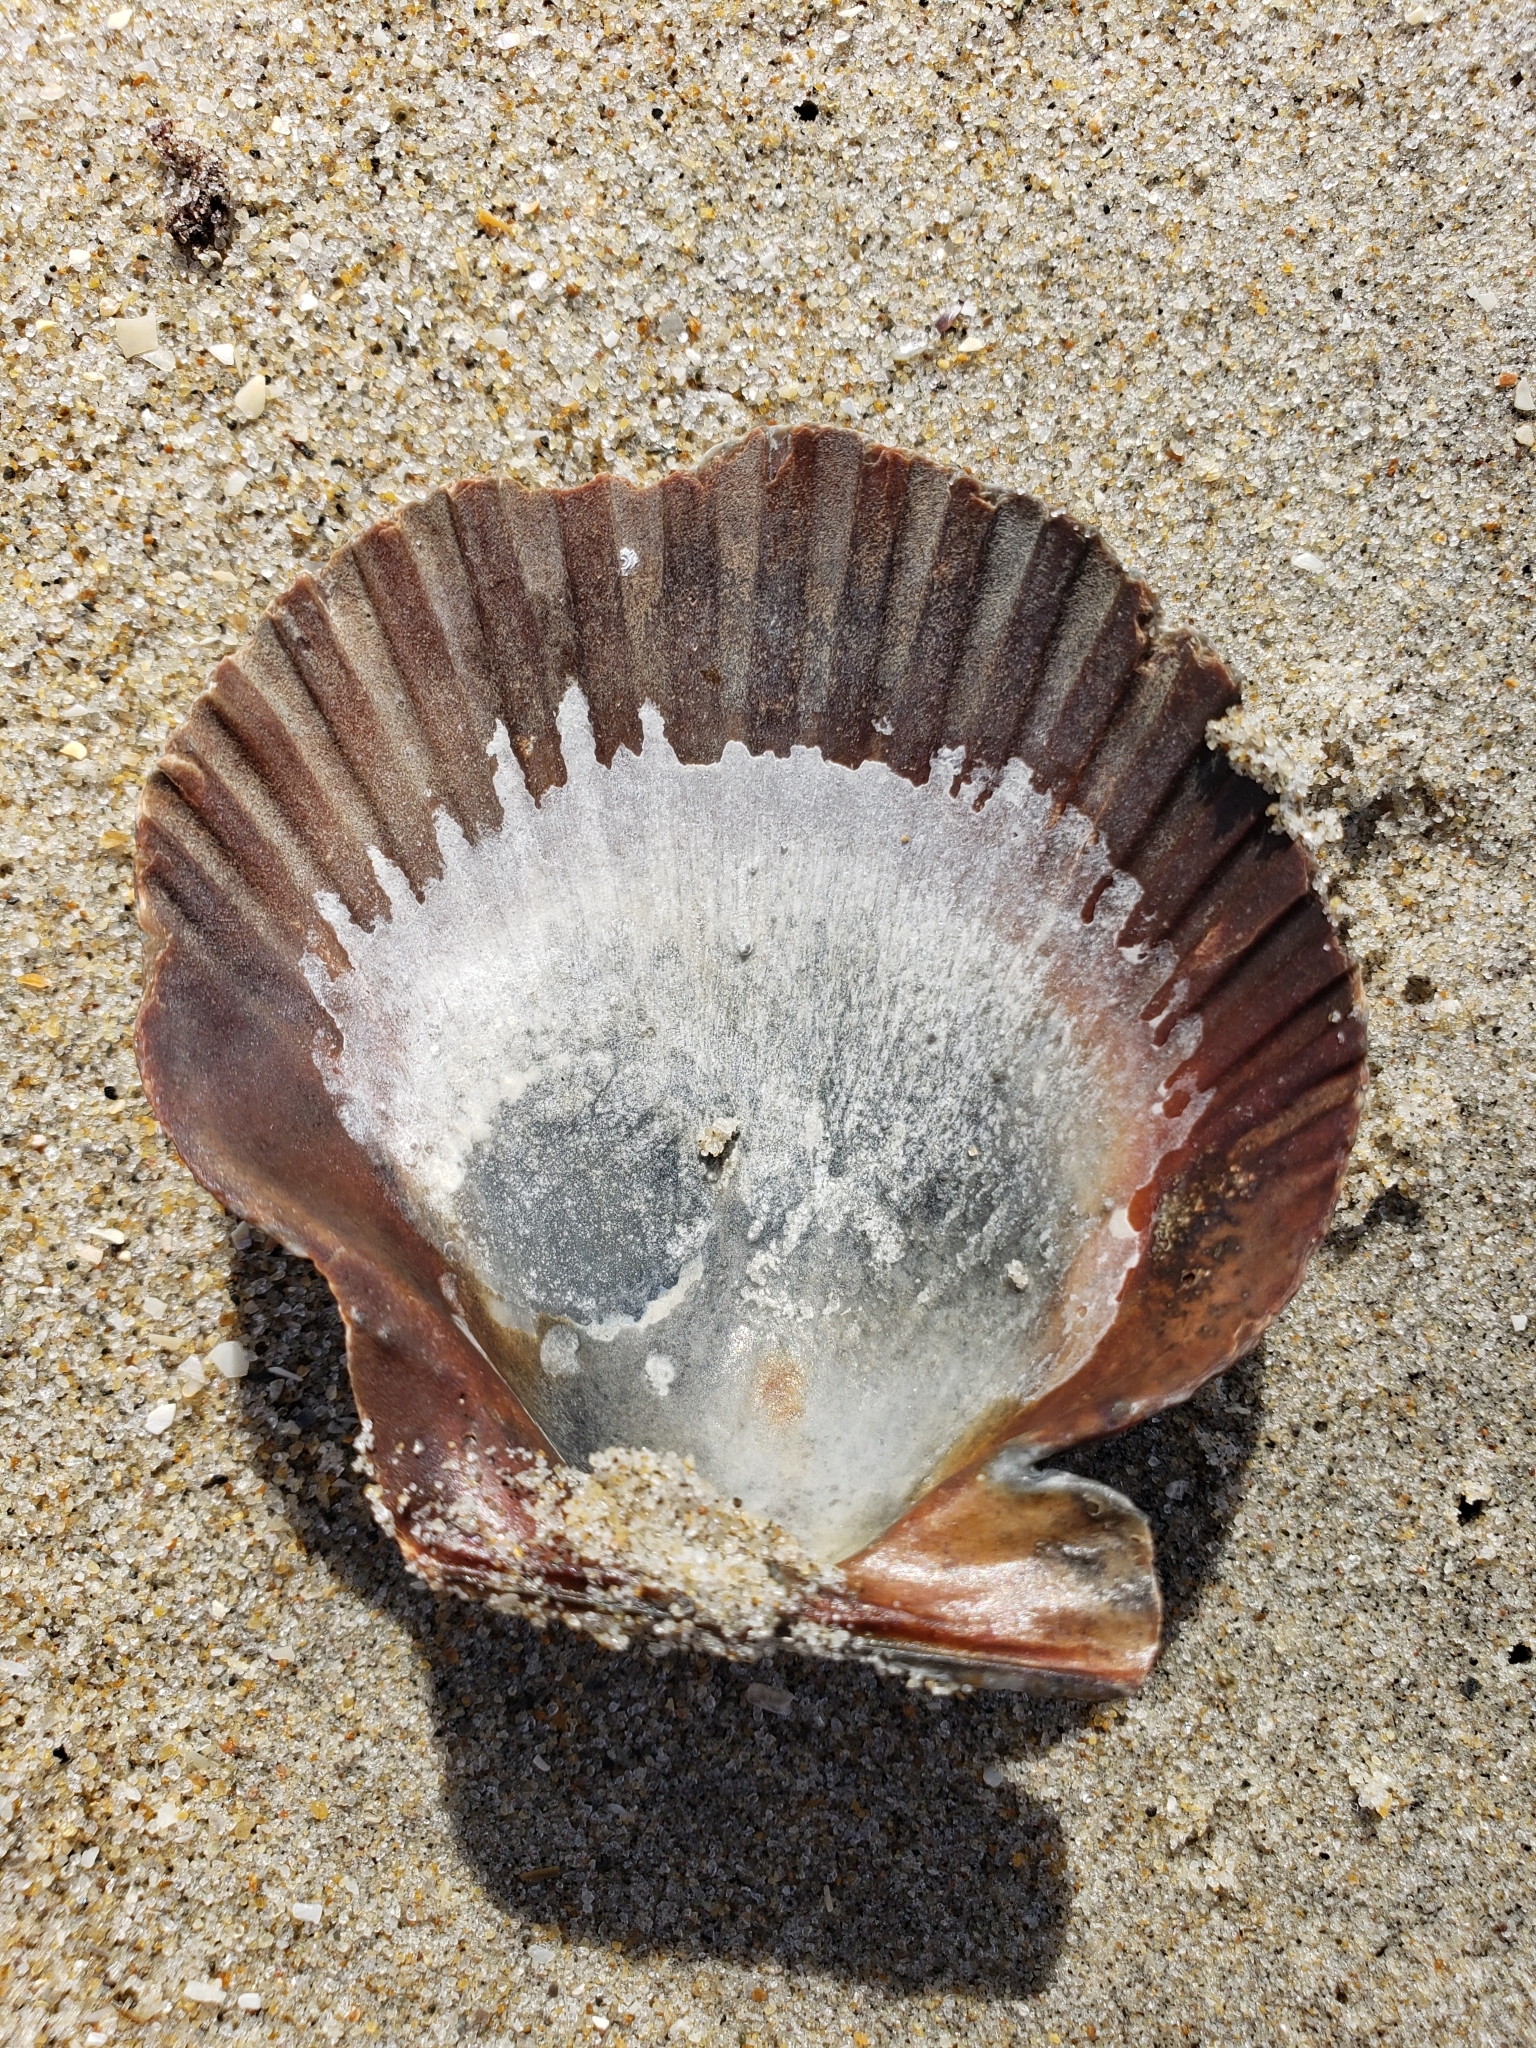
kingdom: Animalia
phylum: Mollusca
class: Bivalvia
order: Pectinida
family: Pectinidae
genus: Argopecten
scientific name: Argopecten ventricosus
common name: Catarina scallop
